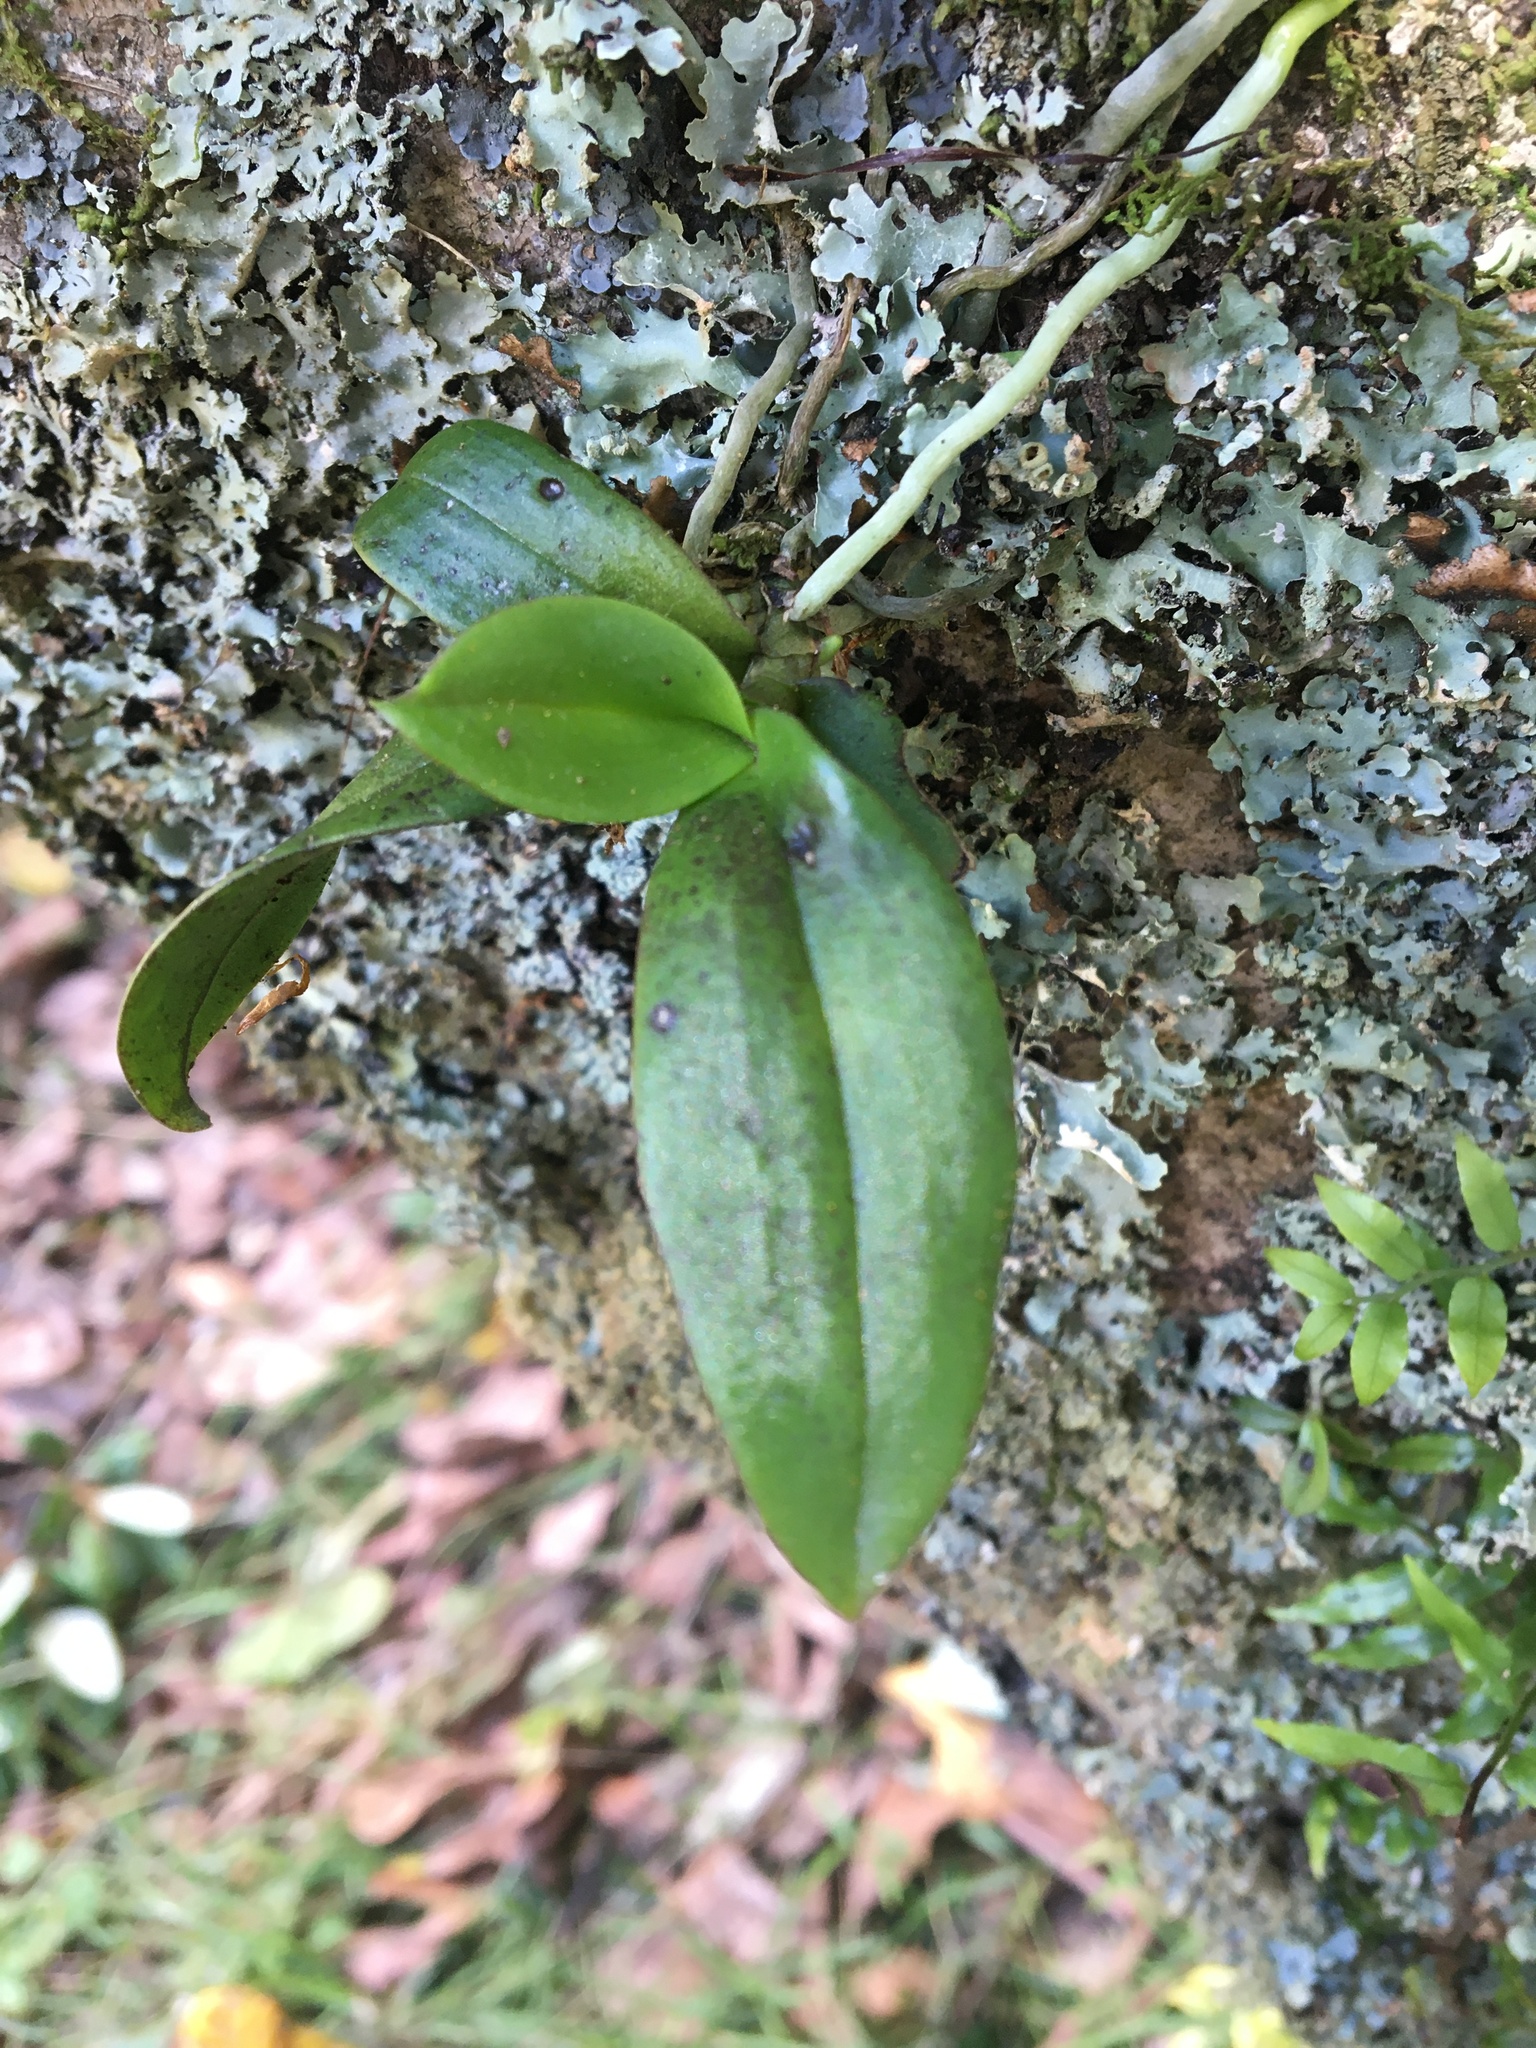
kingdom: Plantae
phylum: Tracheophyta
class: Liliopsida
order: Asparagales
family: Orchidaceae
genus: Drymoanthus
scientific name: Drymoanthus adversus
